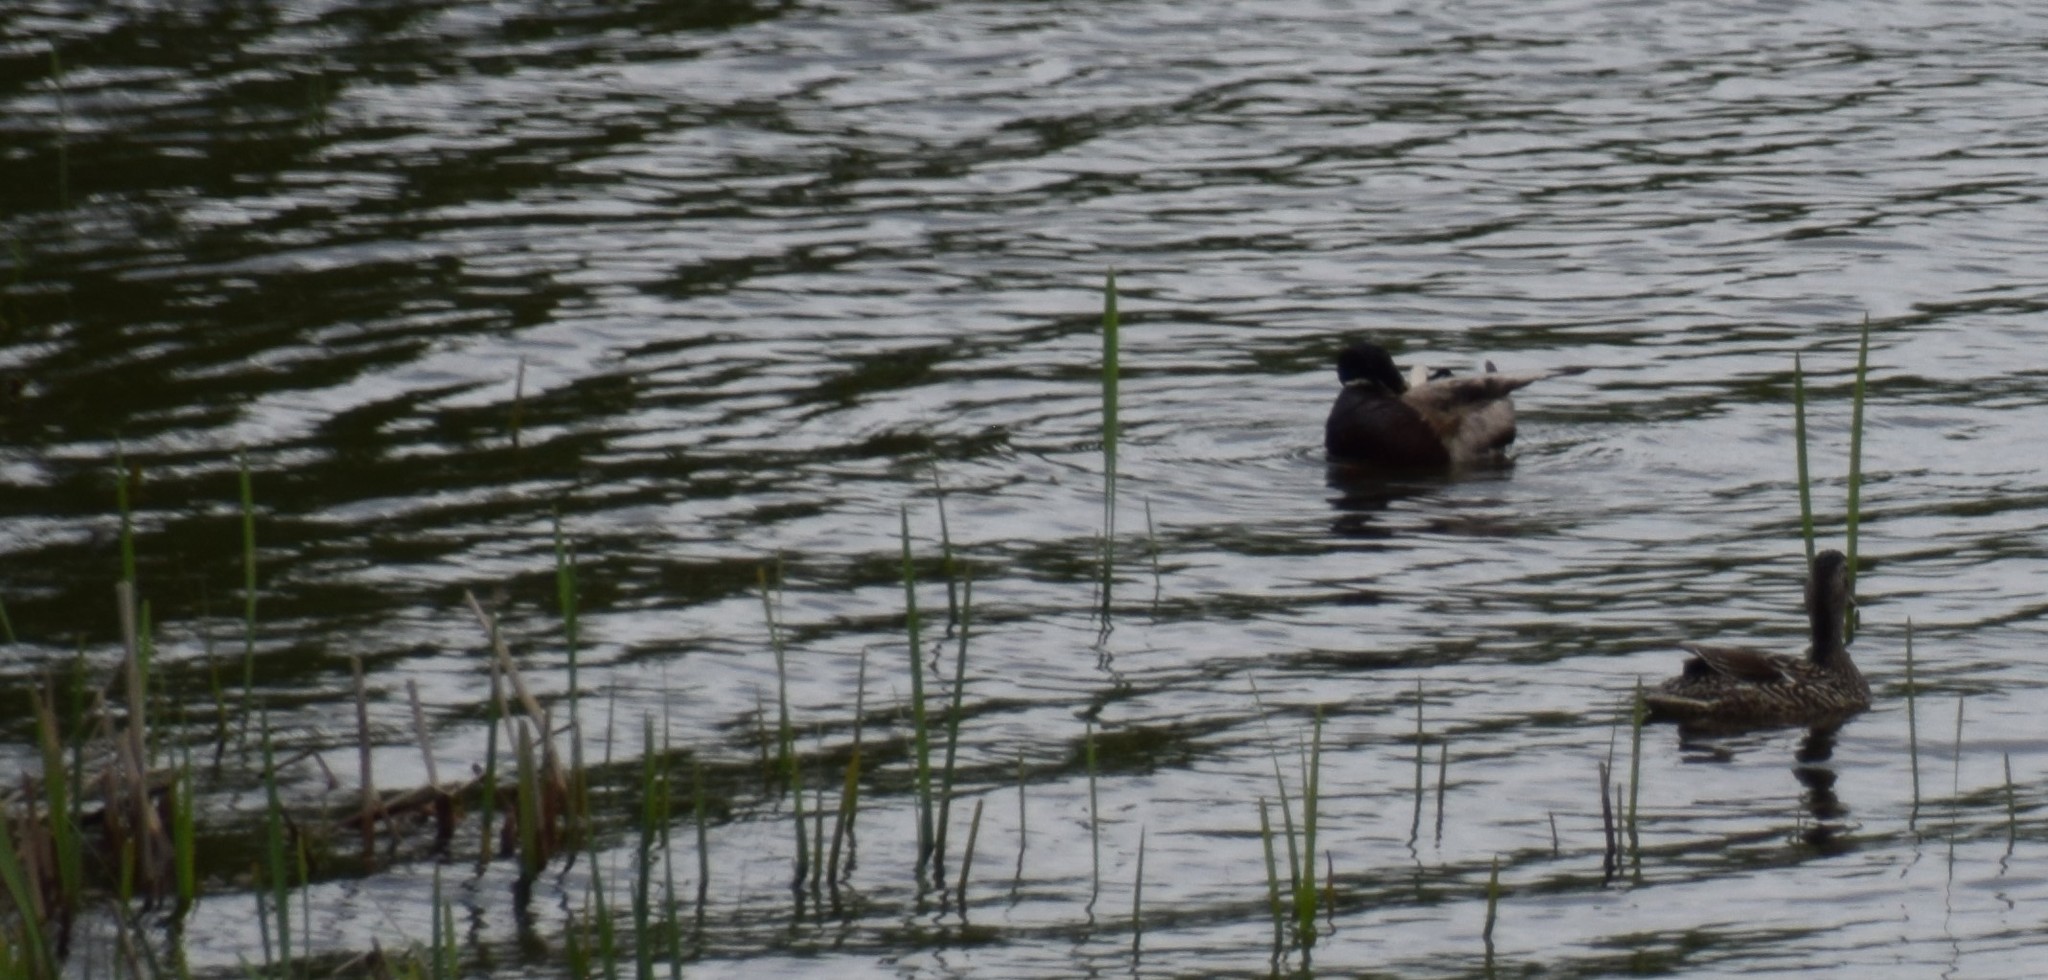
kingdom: Animalia
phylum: Chordata
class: Aves
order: Anseriformes
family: Anatidae
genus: Anas
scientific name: Anas platyrhynchos
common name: Mallard
